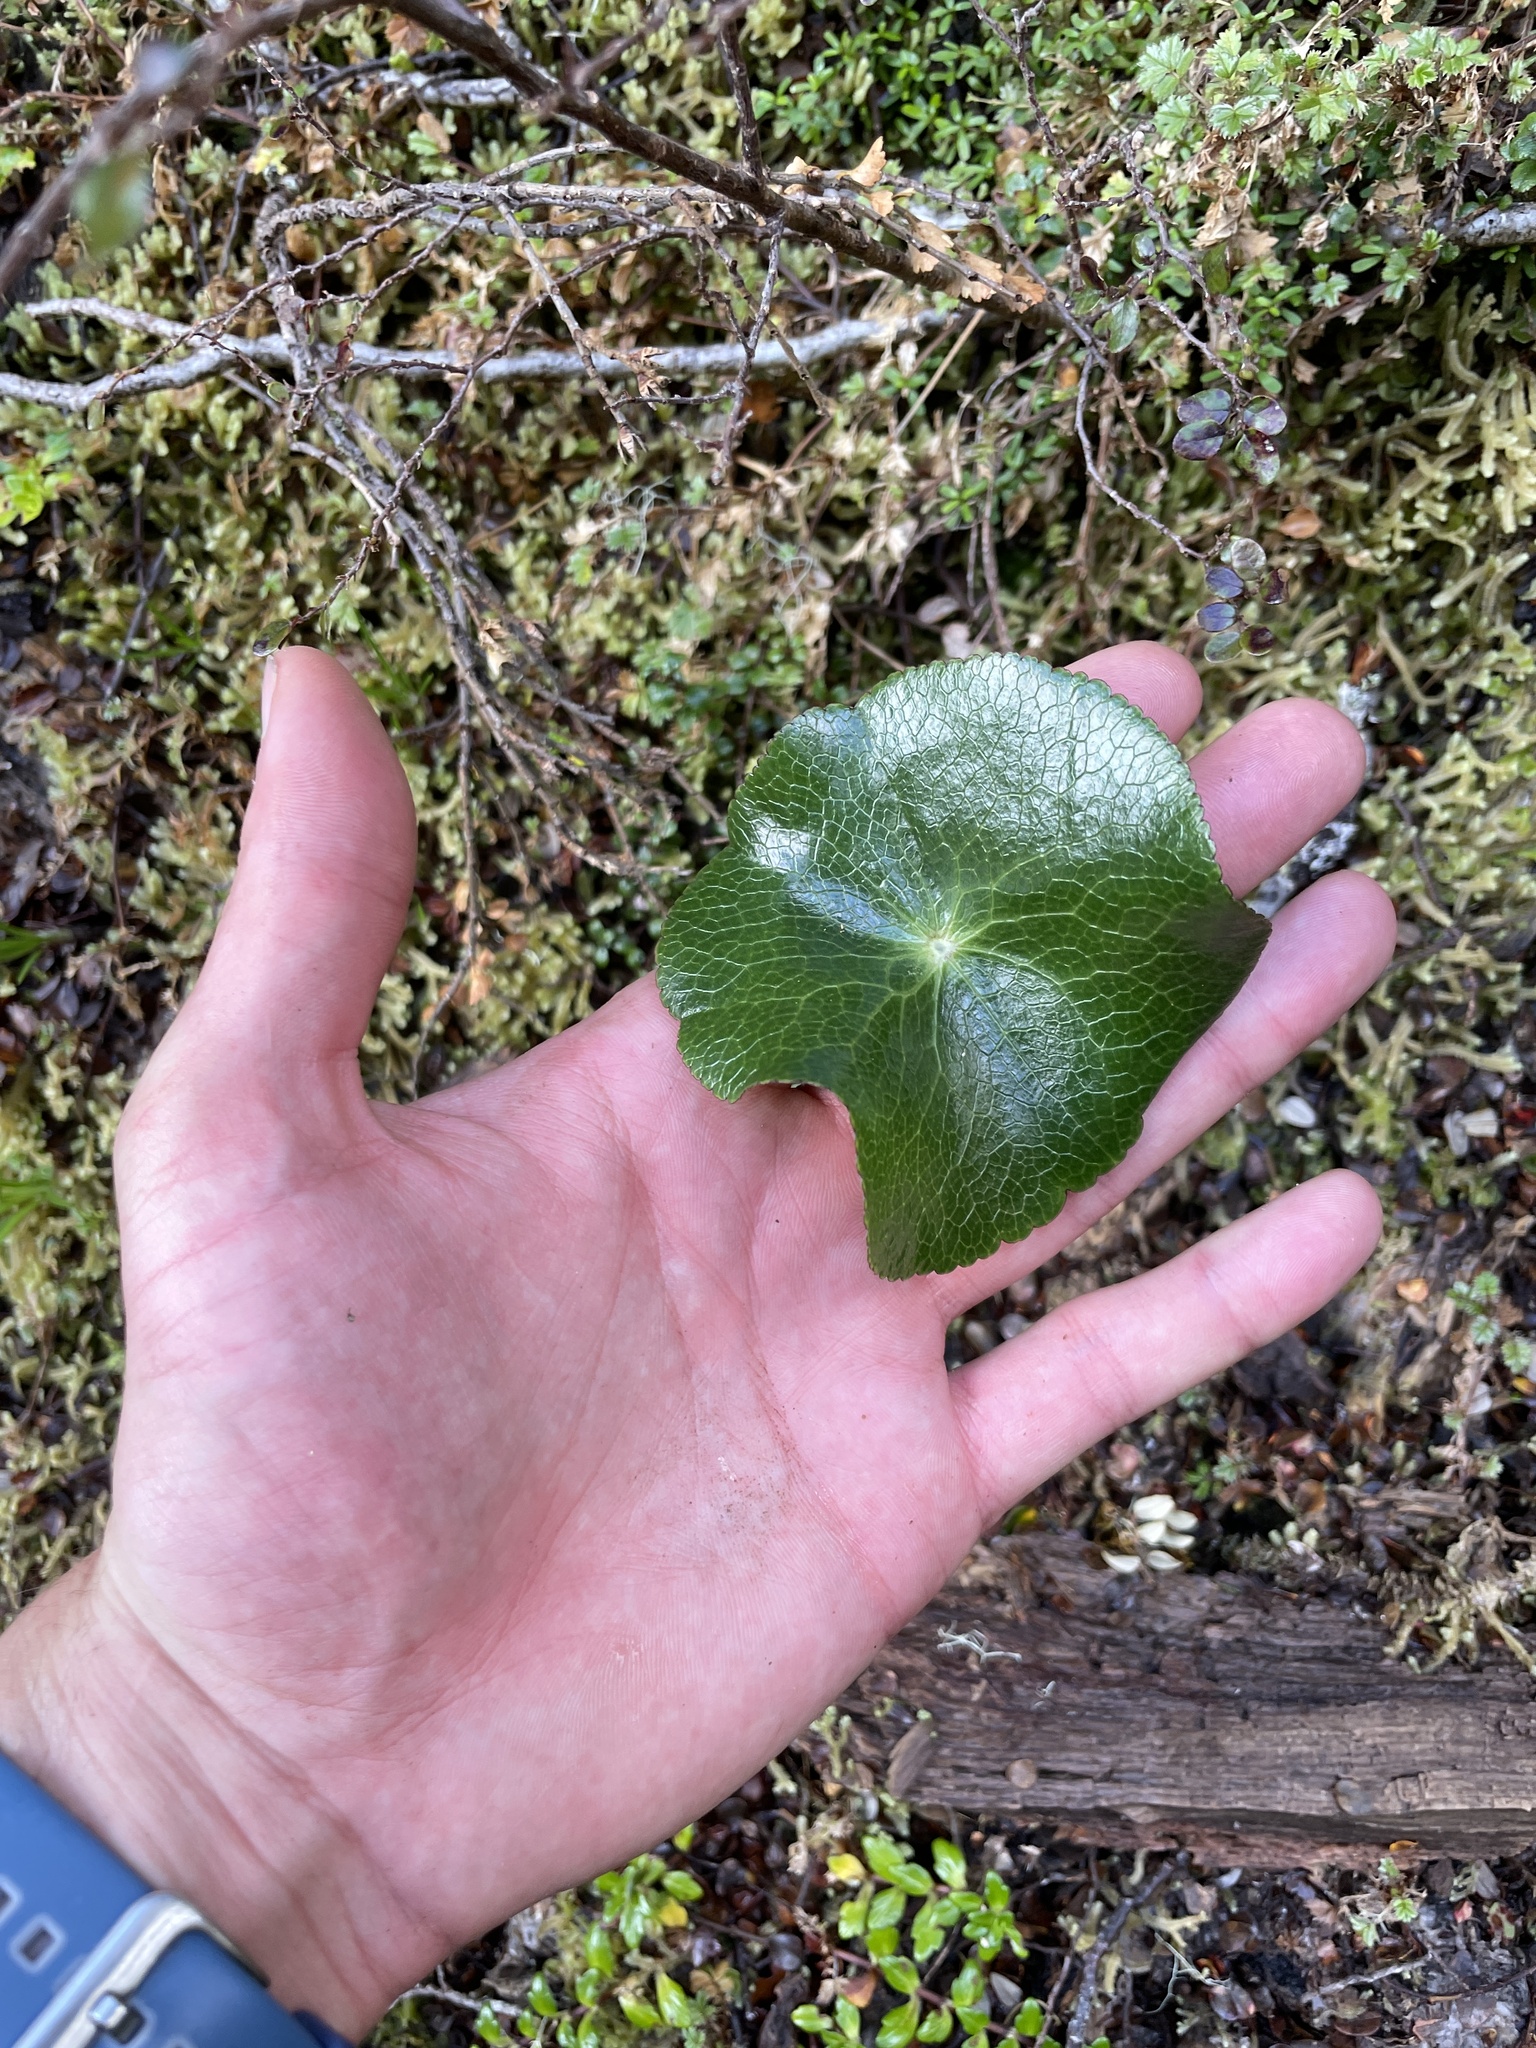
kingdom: Plantae
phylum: Tracheophyta
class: Magnoliopsida
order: Ranunculales
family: Ranunculaceae
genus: Ranunculus
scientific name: Ranunculus lyallii
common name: Mountain-lily
